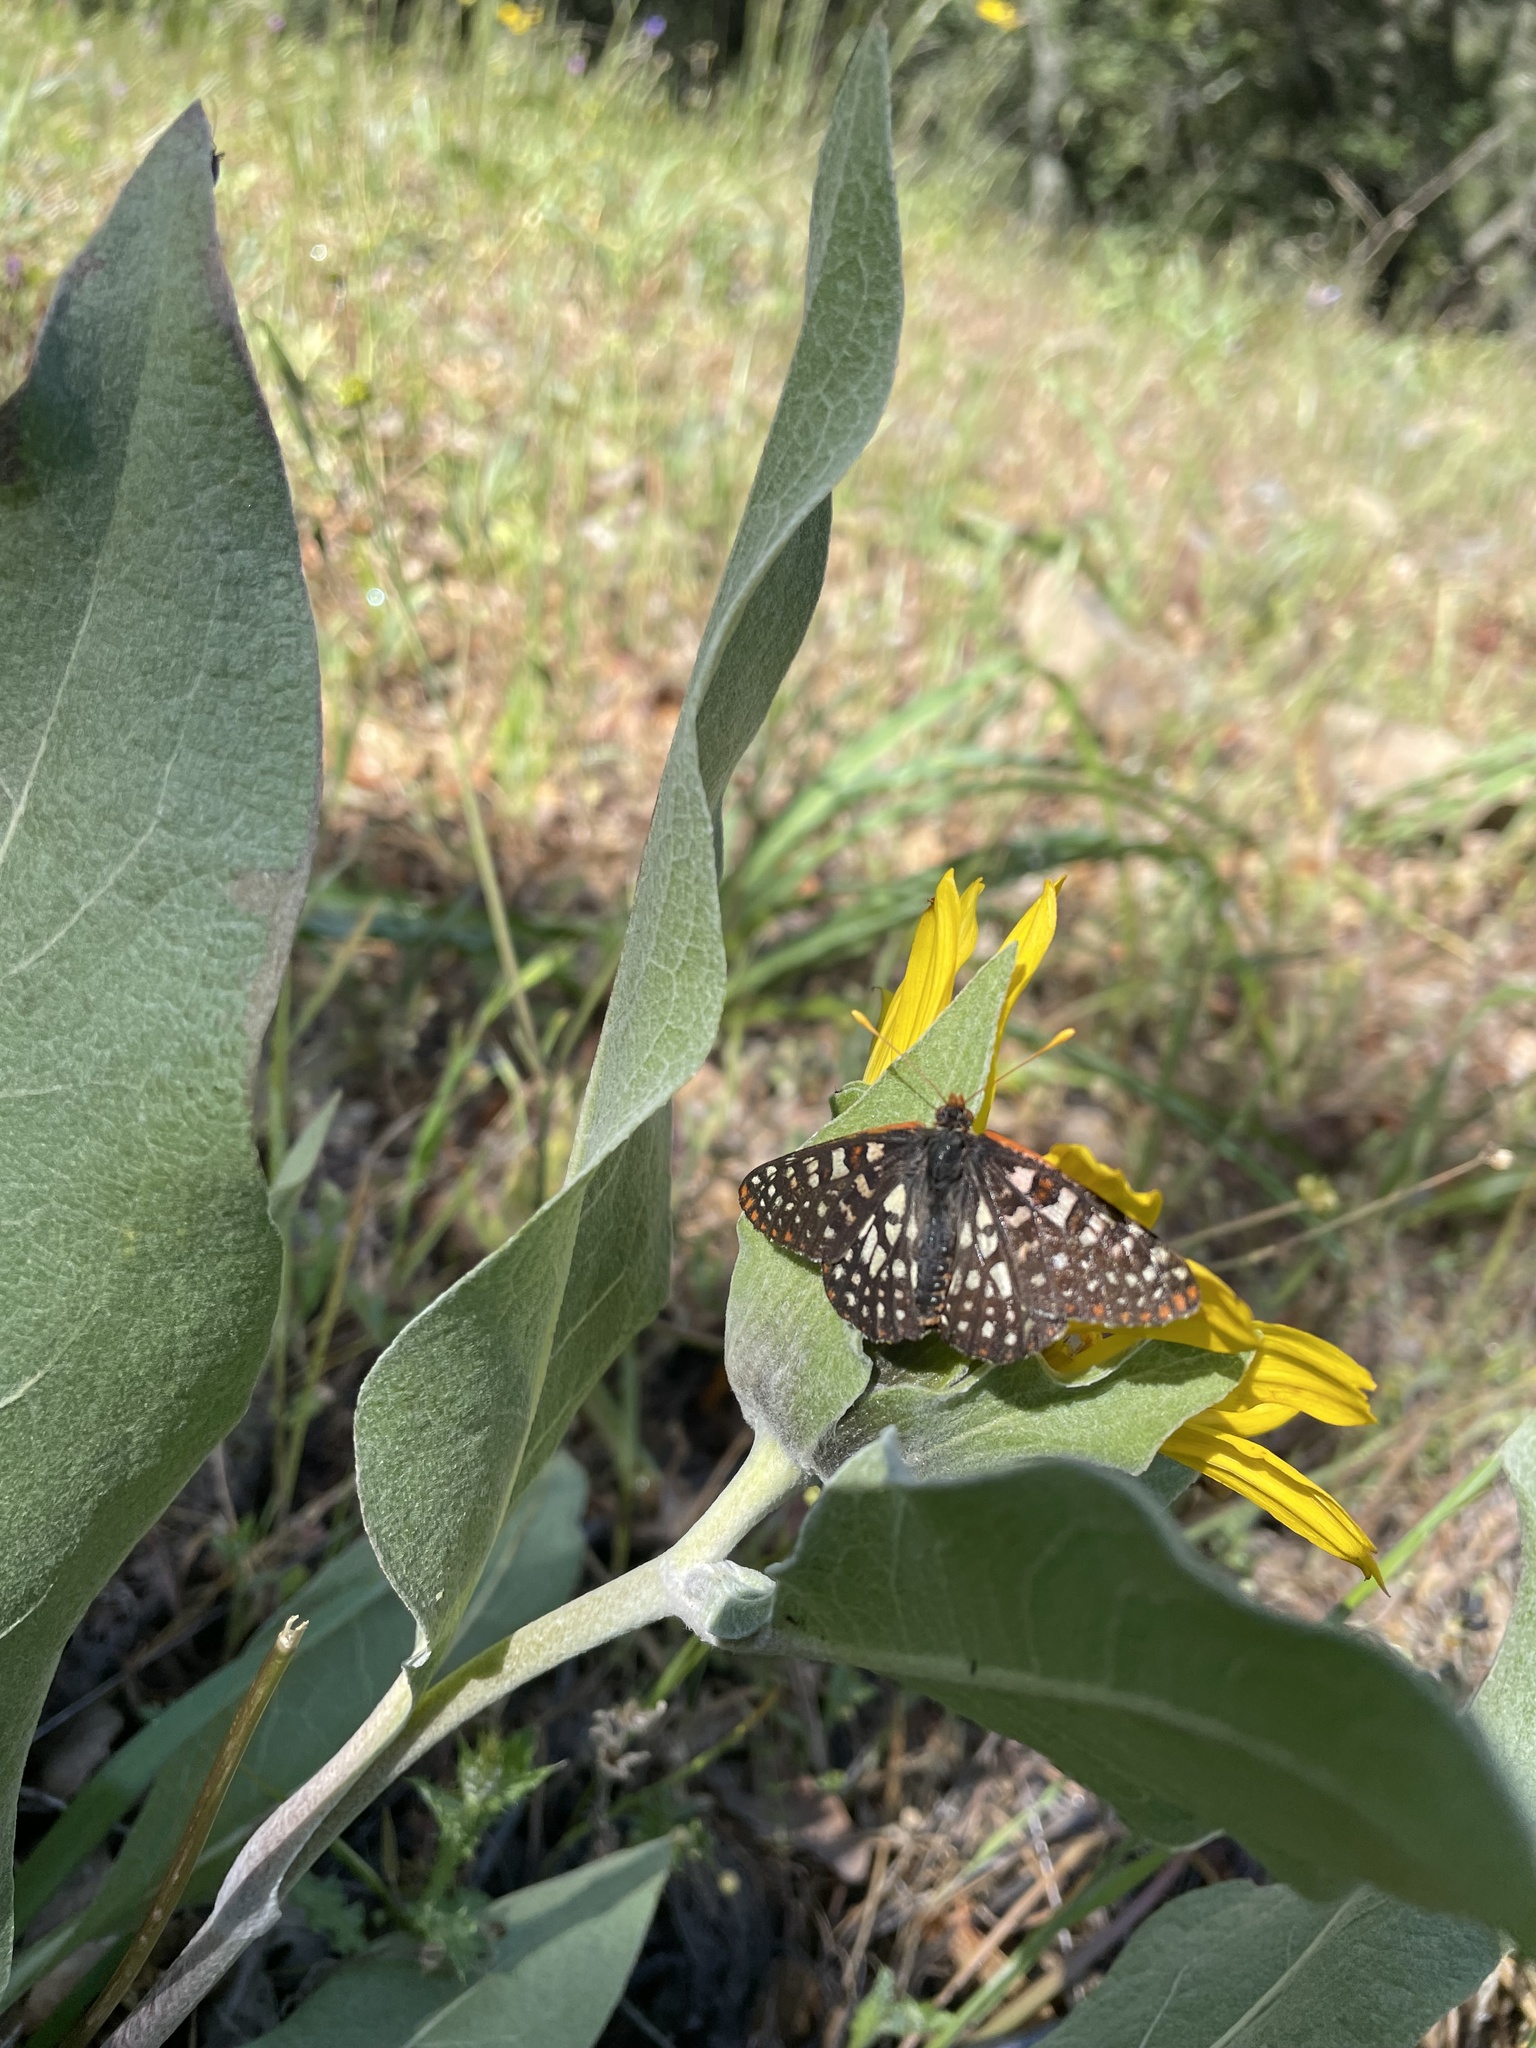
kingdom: Animalia
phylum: Arthropoda
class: Insecta
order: Lepidoptera
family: Nymphalidae
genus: Occidryas
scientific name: Occidryas chalcedona
